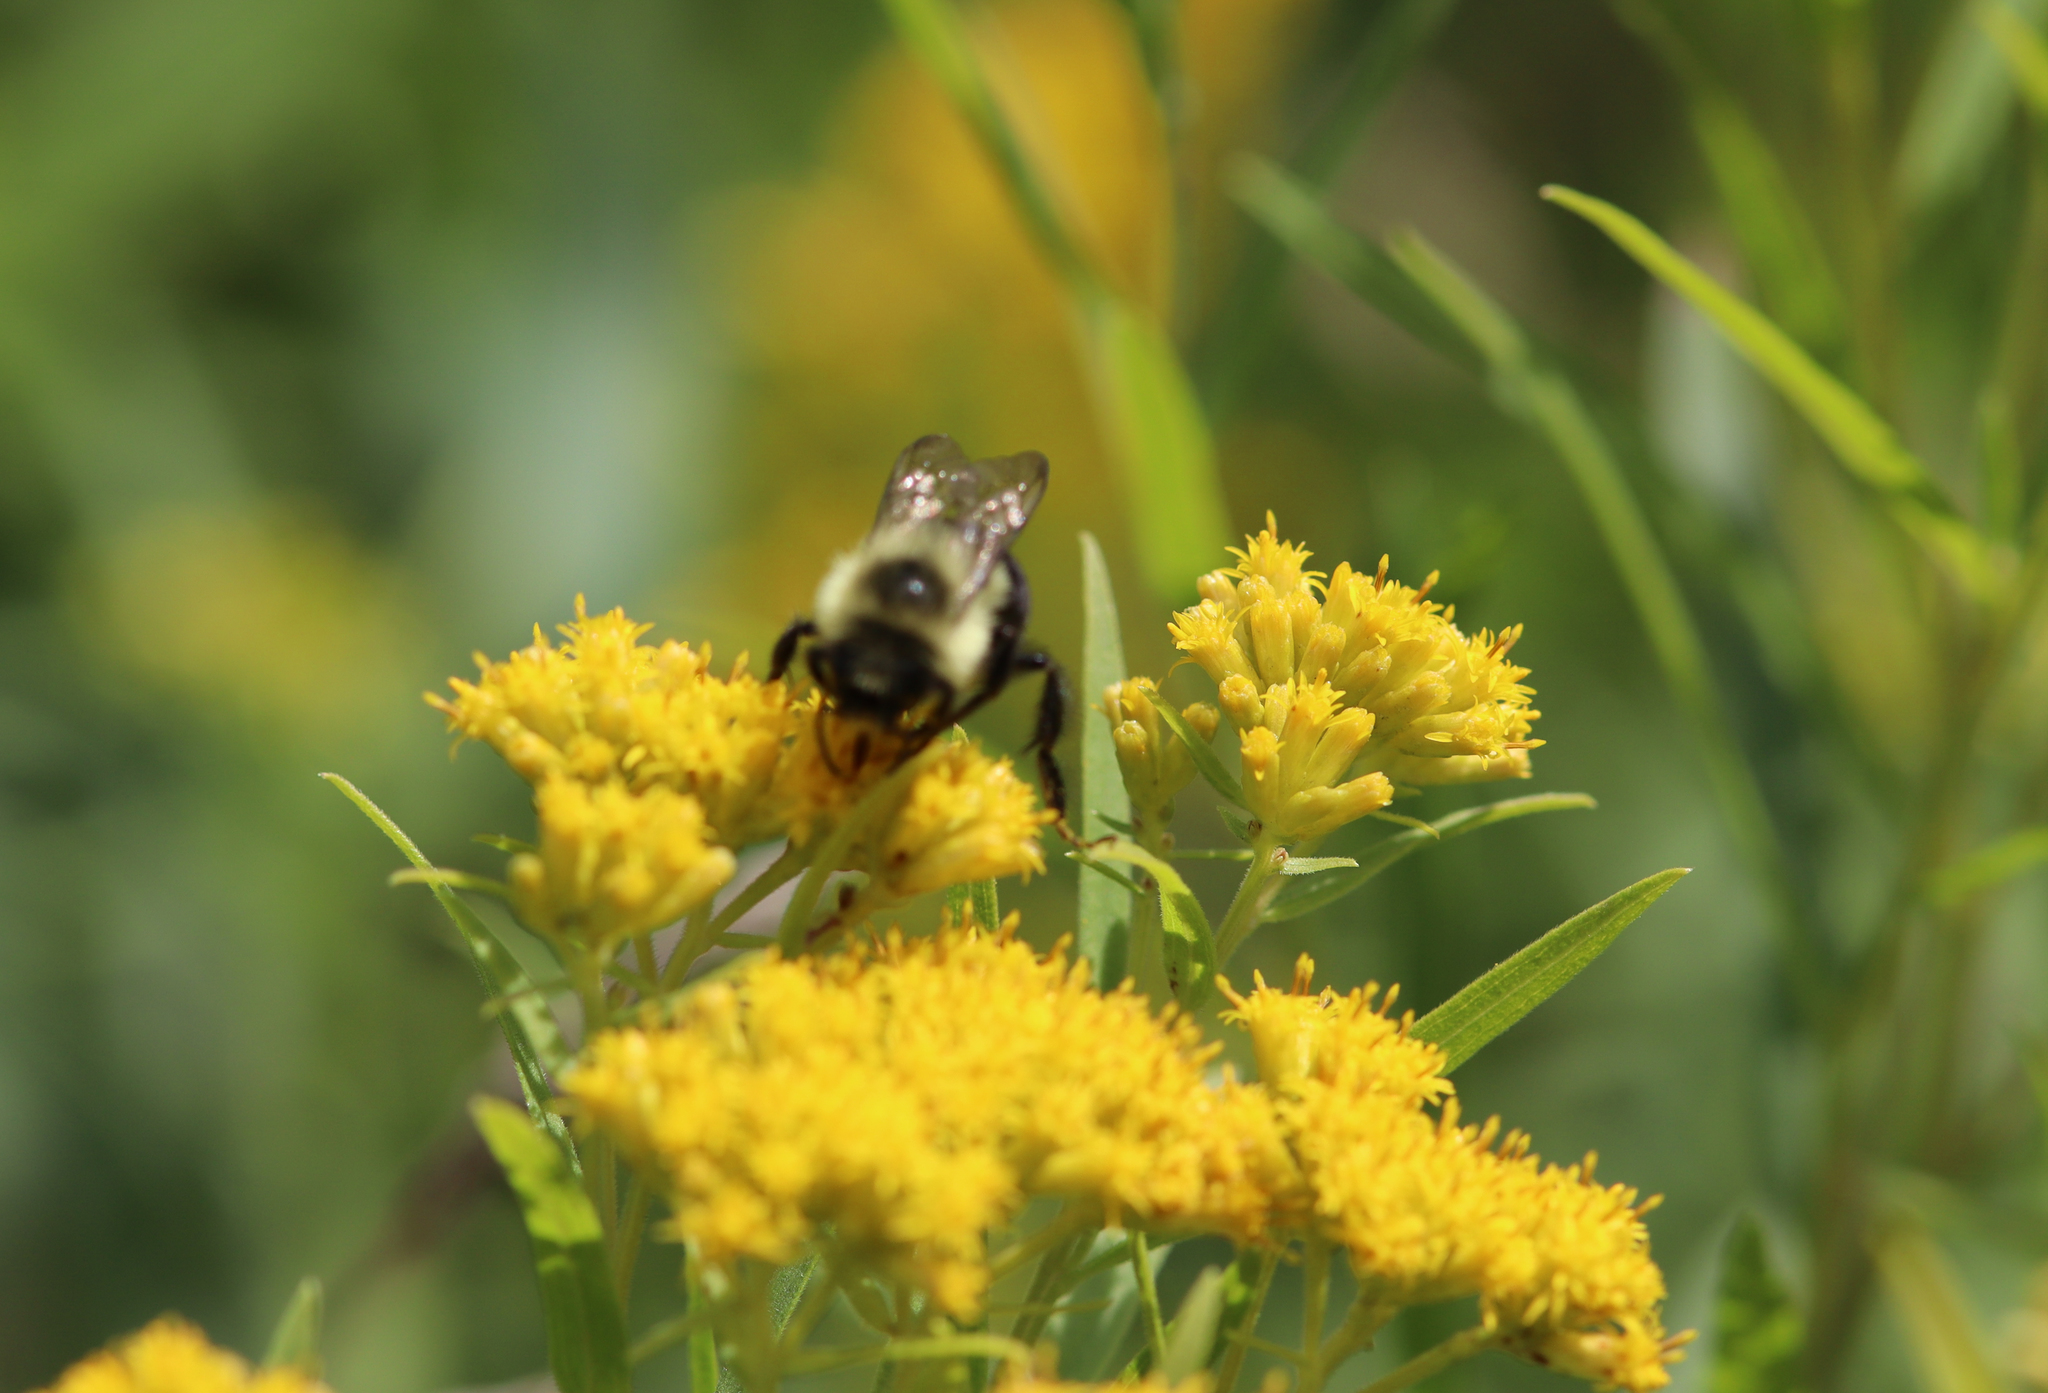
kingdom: Animalia
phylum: Arthropoda
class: Insecta
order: Hymenoptera
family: Apidae
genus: Bombus
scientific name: Bombus impatiens
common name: Common eastern bumble bee
